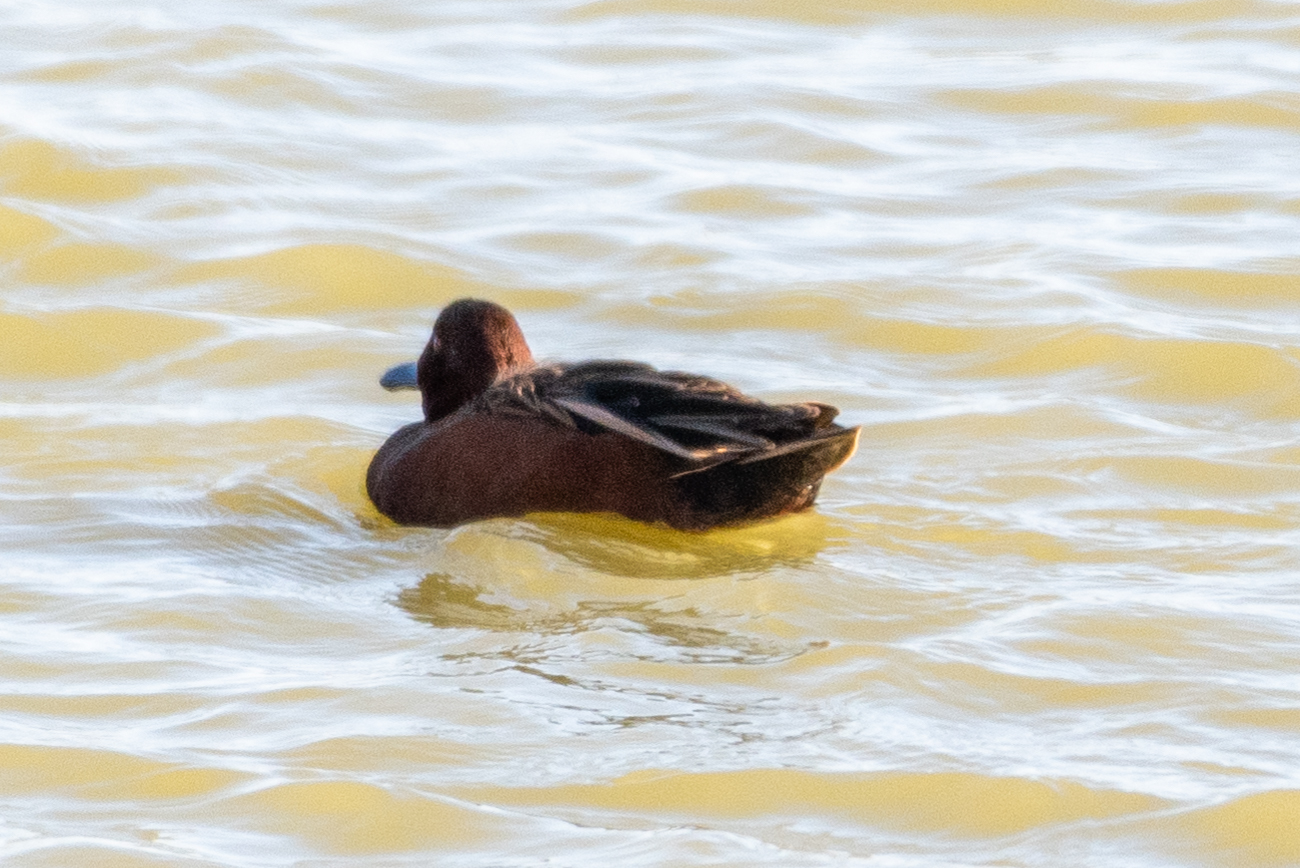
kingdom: Animalia
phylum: Chordata
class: Aves
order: Anseriformes
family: Anatidae
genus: Spatula
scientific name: Spatula cyanoptera
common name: Cinnamon teal
